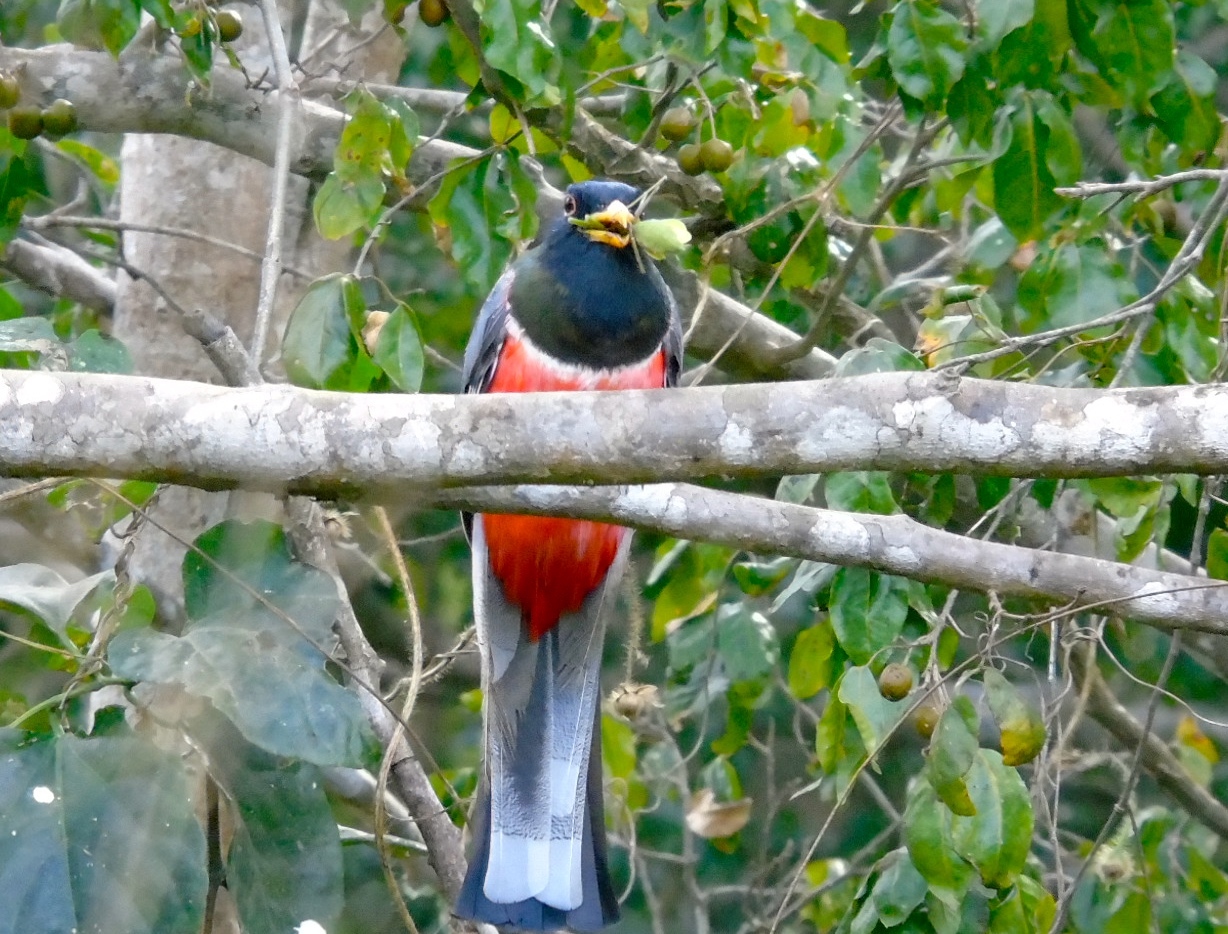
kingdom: Animalia
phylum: Chordata
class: Aves
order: Trogoniformes
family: Trogonidae
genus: Trogon
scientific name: Trogon elegans
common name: Elegant trogon
